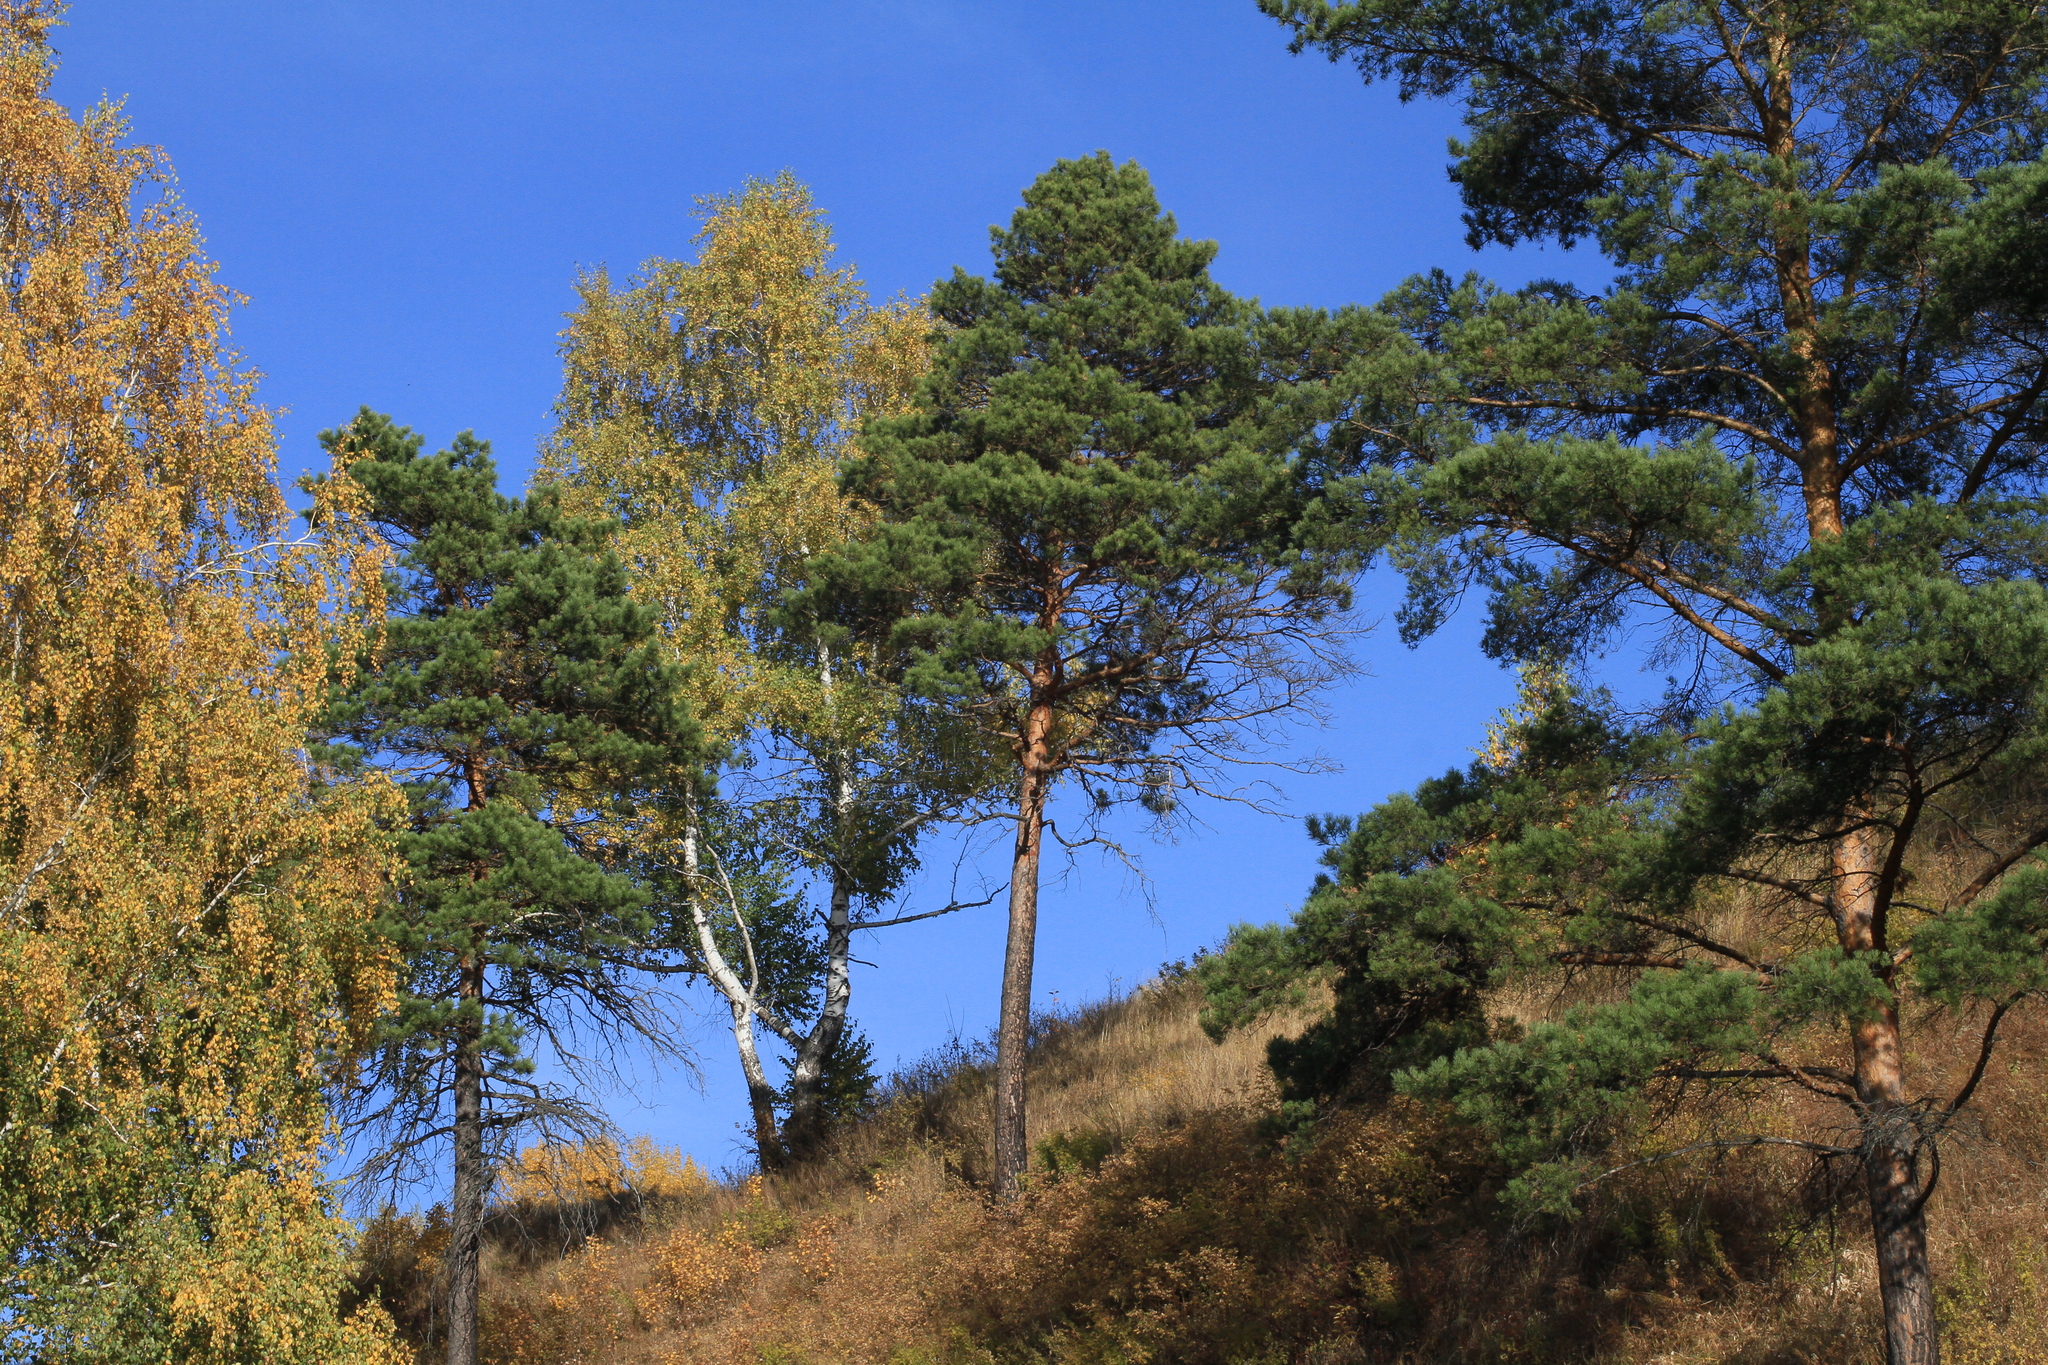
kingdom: Plantae
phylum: Tracheophyta
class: Pinopsida
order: Pinales
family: Pinaceae
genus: Pinus
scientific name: Pinus sylvestris
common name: Scots pine
